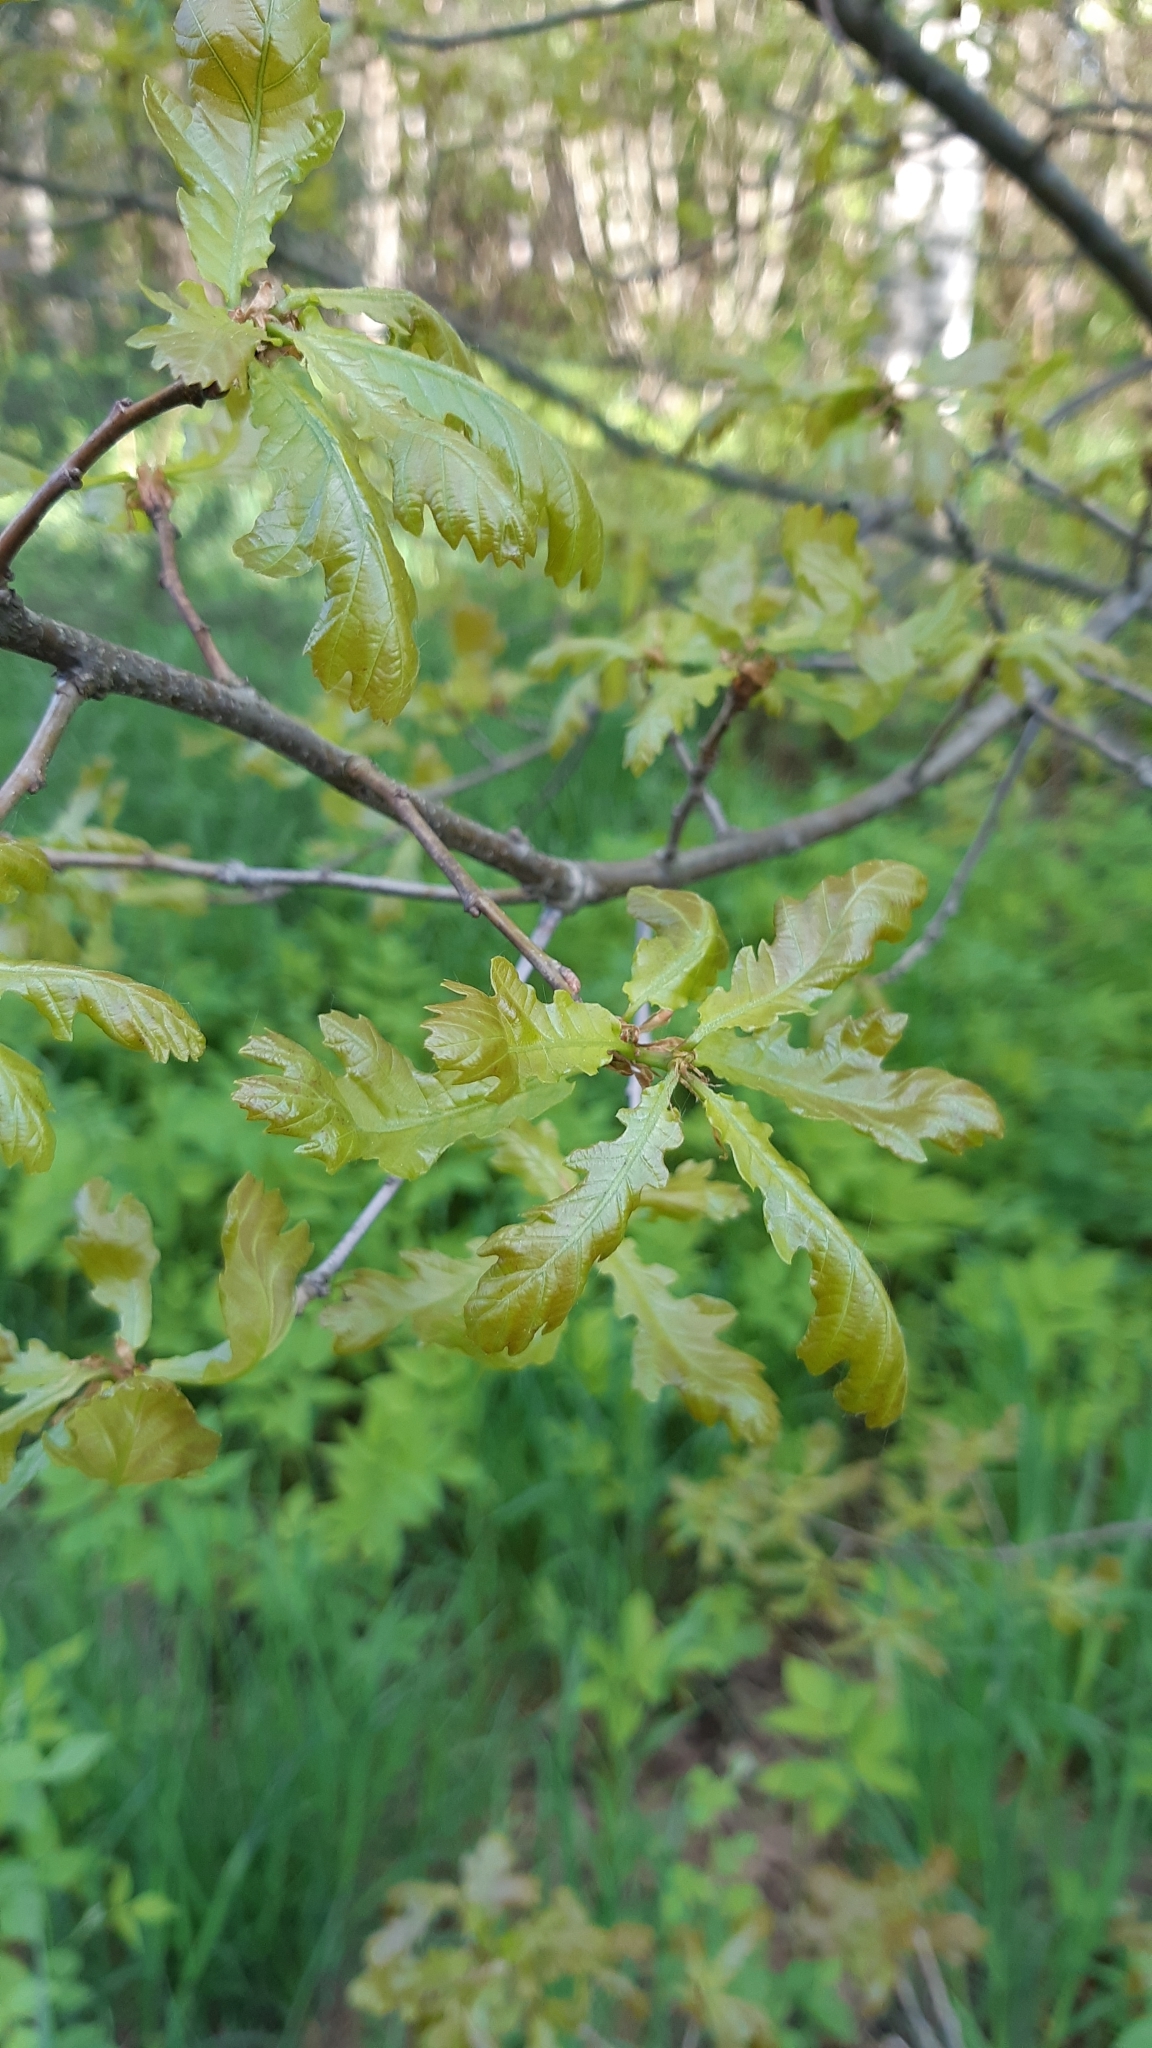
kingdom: Plantae
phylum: Tracheophyta
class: Magnoliopsida
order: Fagales
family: Fagaceae
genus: Quercus
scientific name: Quercus robur
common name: Pedunculate oak
